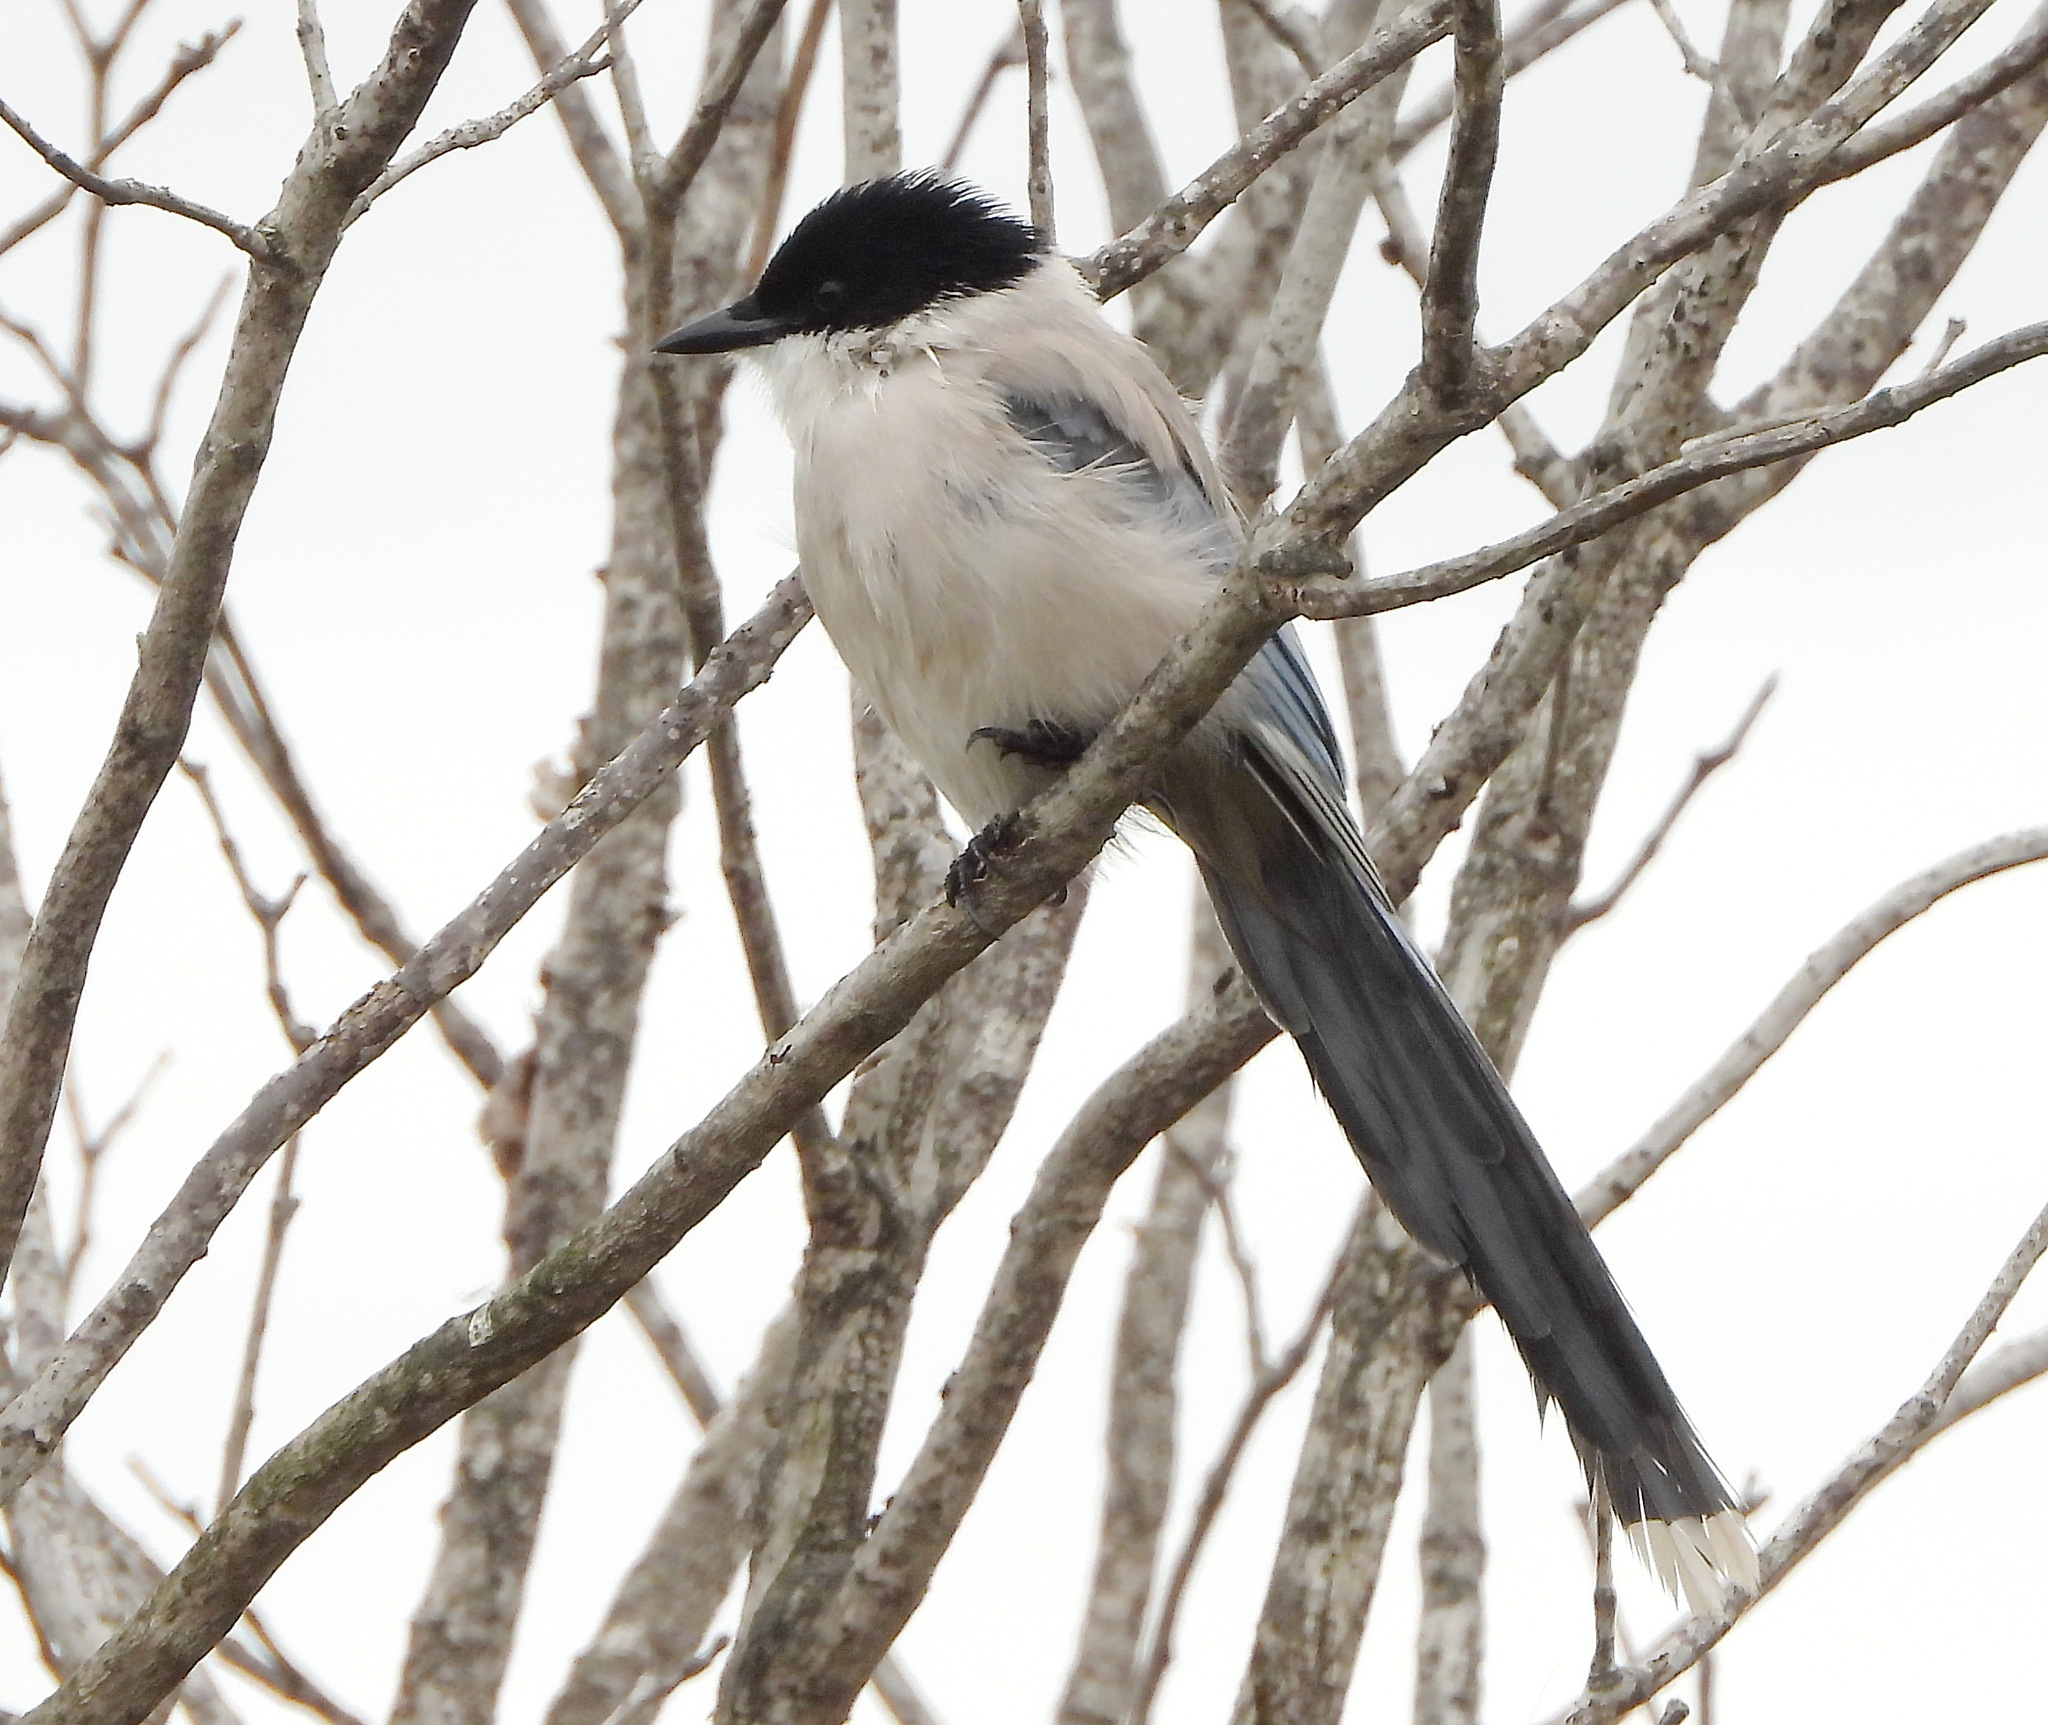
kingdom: Animalia
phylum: Chordata
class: Aves
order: Passeriformes
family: Corvidae
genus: Cyanopica
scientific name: Cyanopica cyanus
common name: Azure-winged magpie
